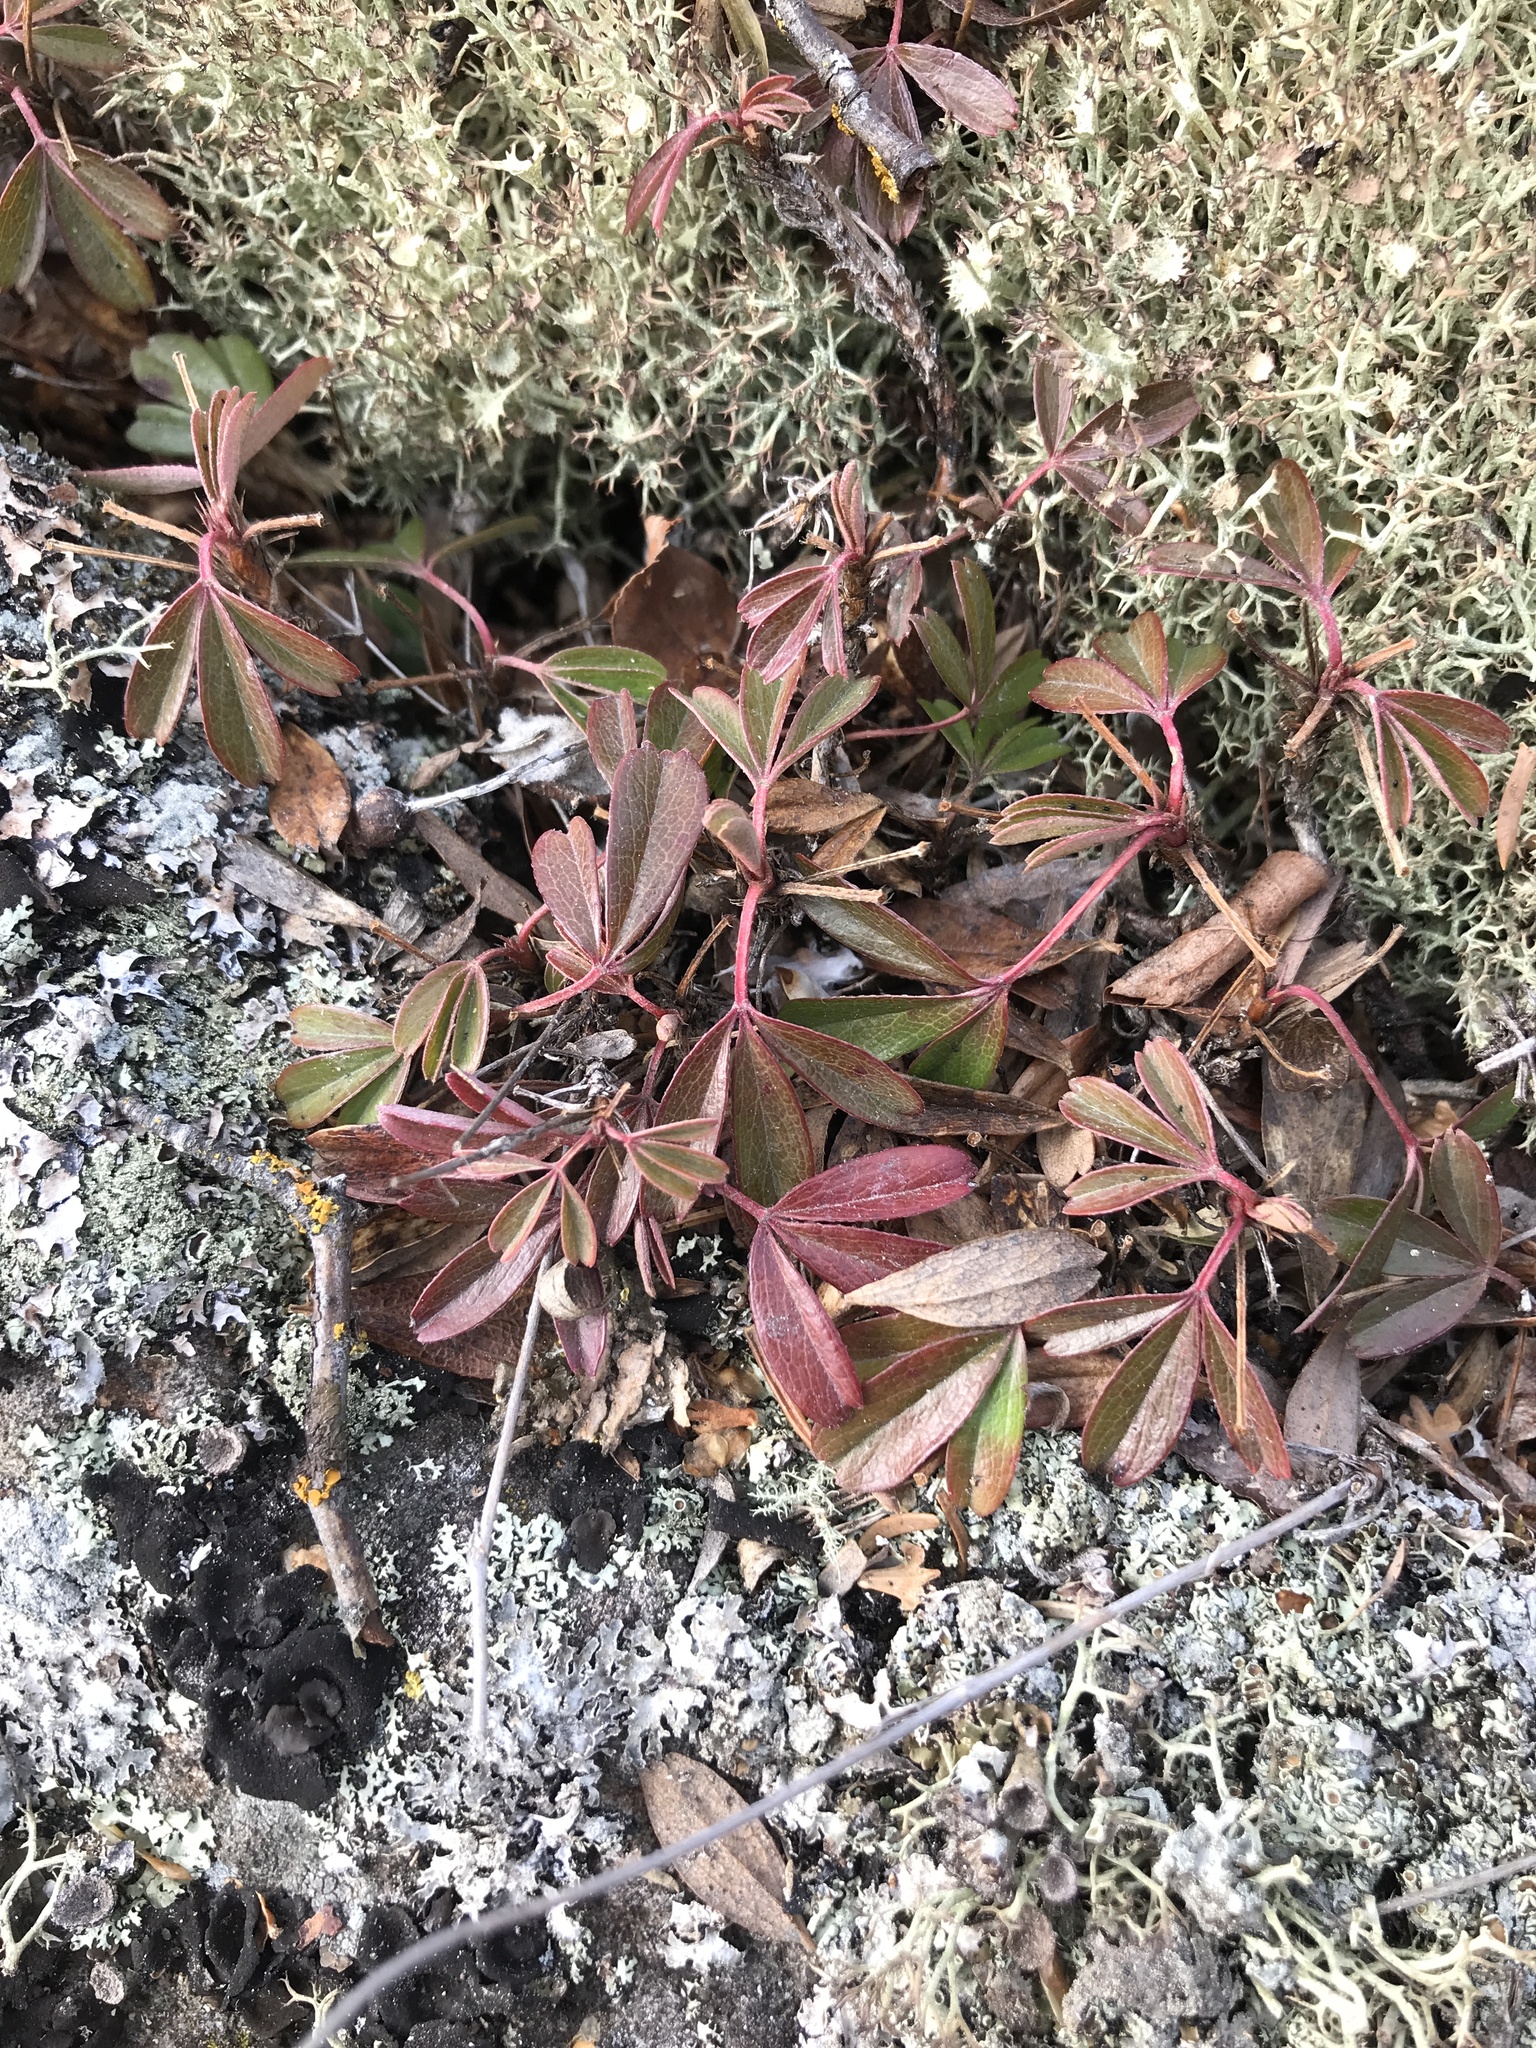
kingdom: Plantae
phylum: Tracheophyta
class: Magnoliopsida
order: Rosales
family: Rosaceae
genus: Sibbaldia
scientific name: Sibbaldia tridentata
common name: Three-toothed cinquefoil
